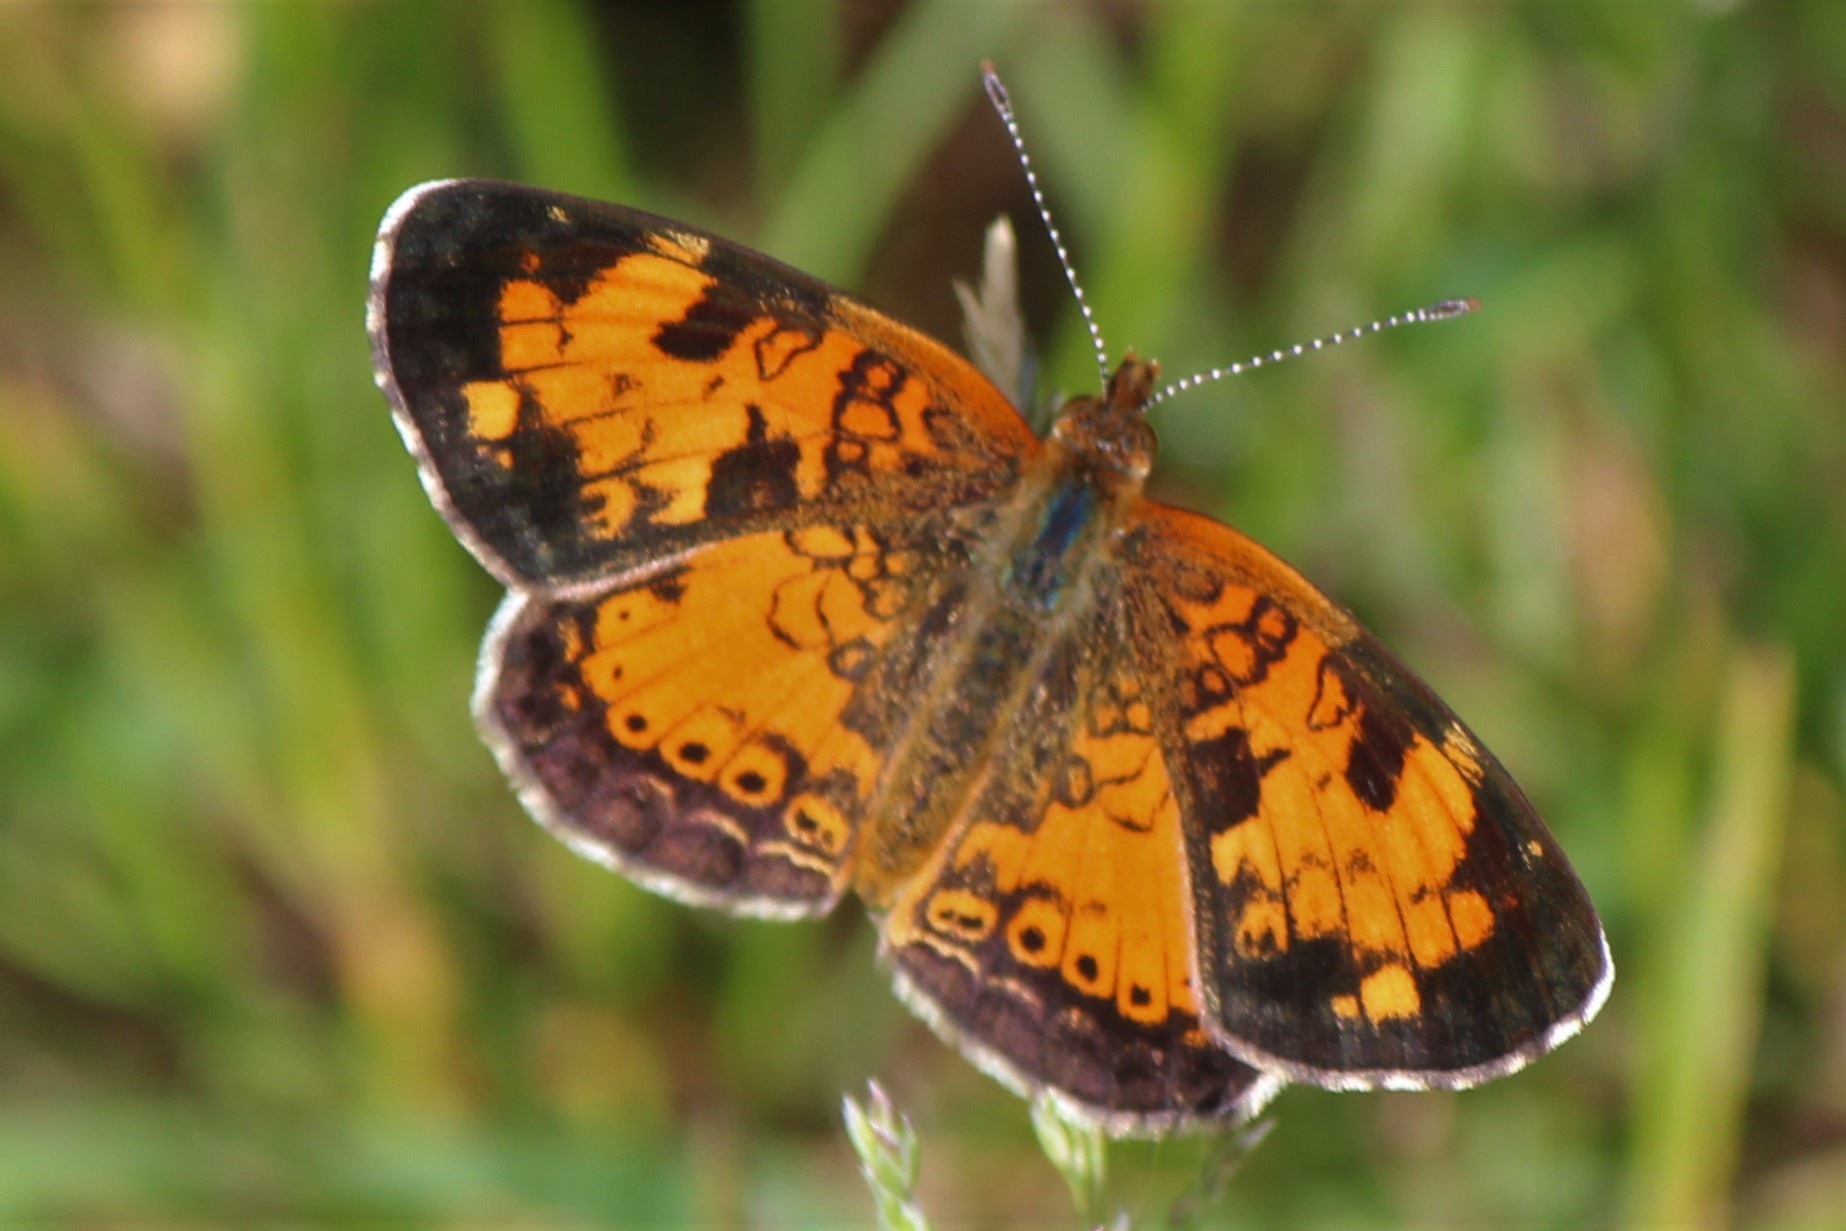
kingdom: Animalia
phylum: Arthropoda
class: Insecta
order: Lepidoptera
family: Nymphalidae
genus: Phyciodes
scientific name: Phyciodes tharos
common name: Pearl crescent
